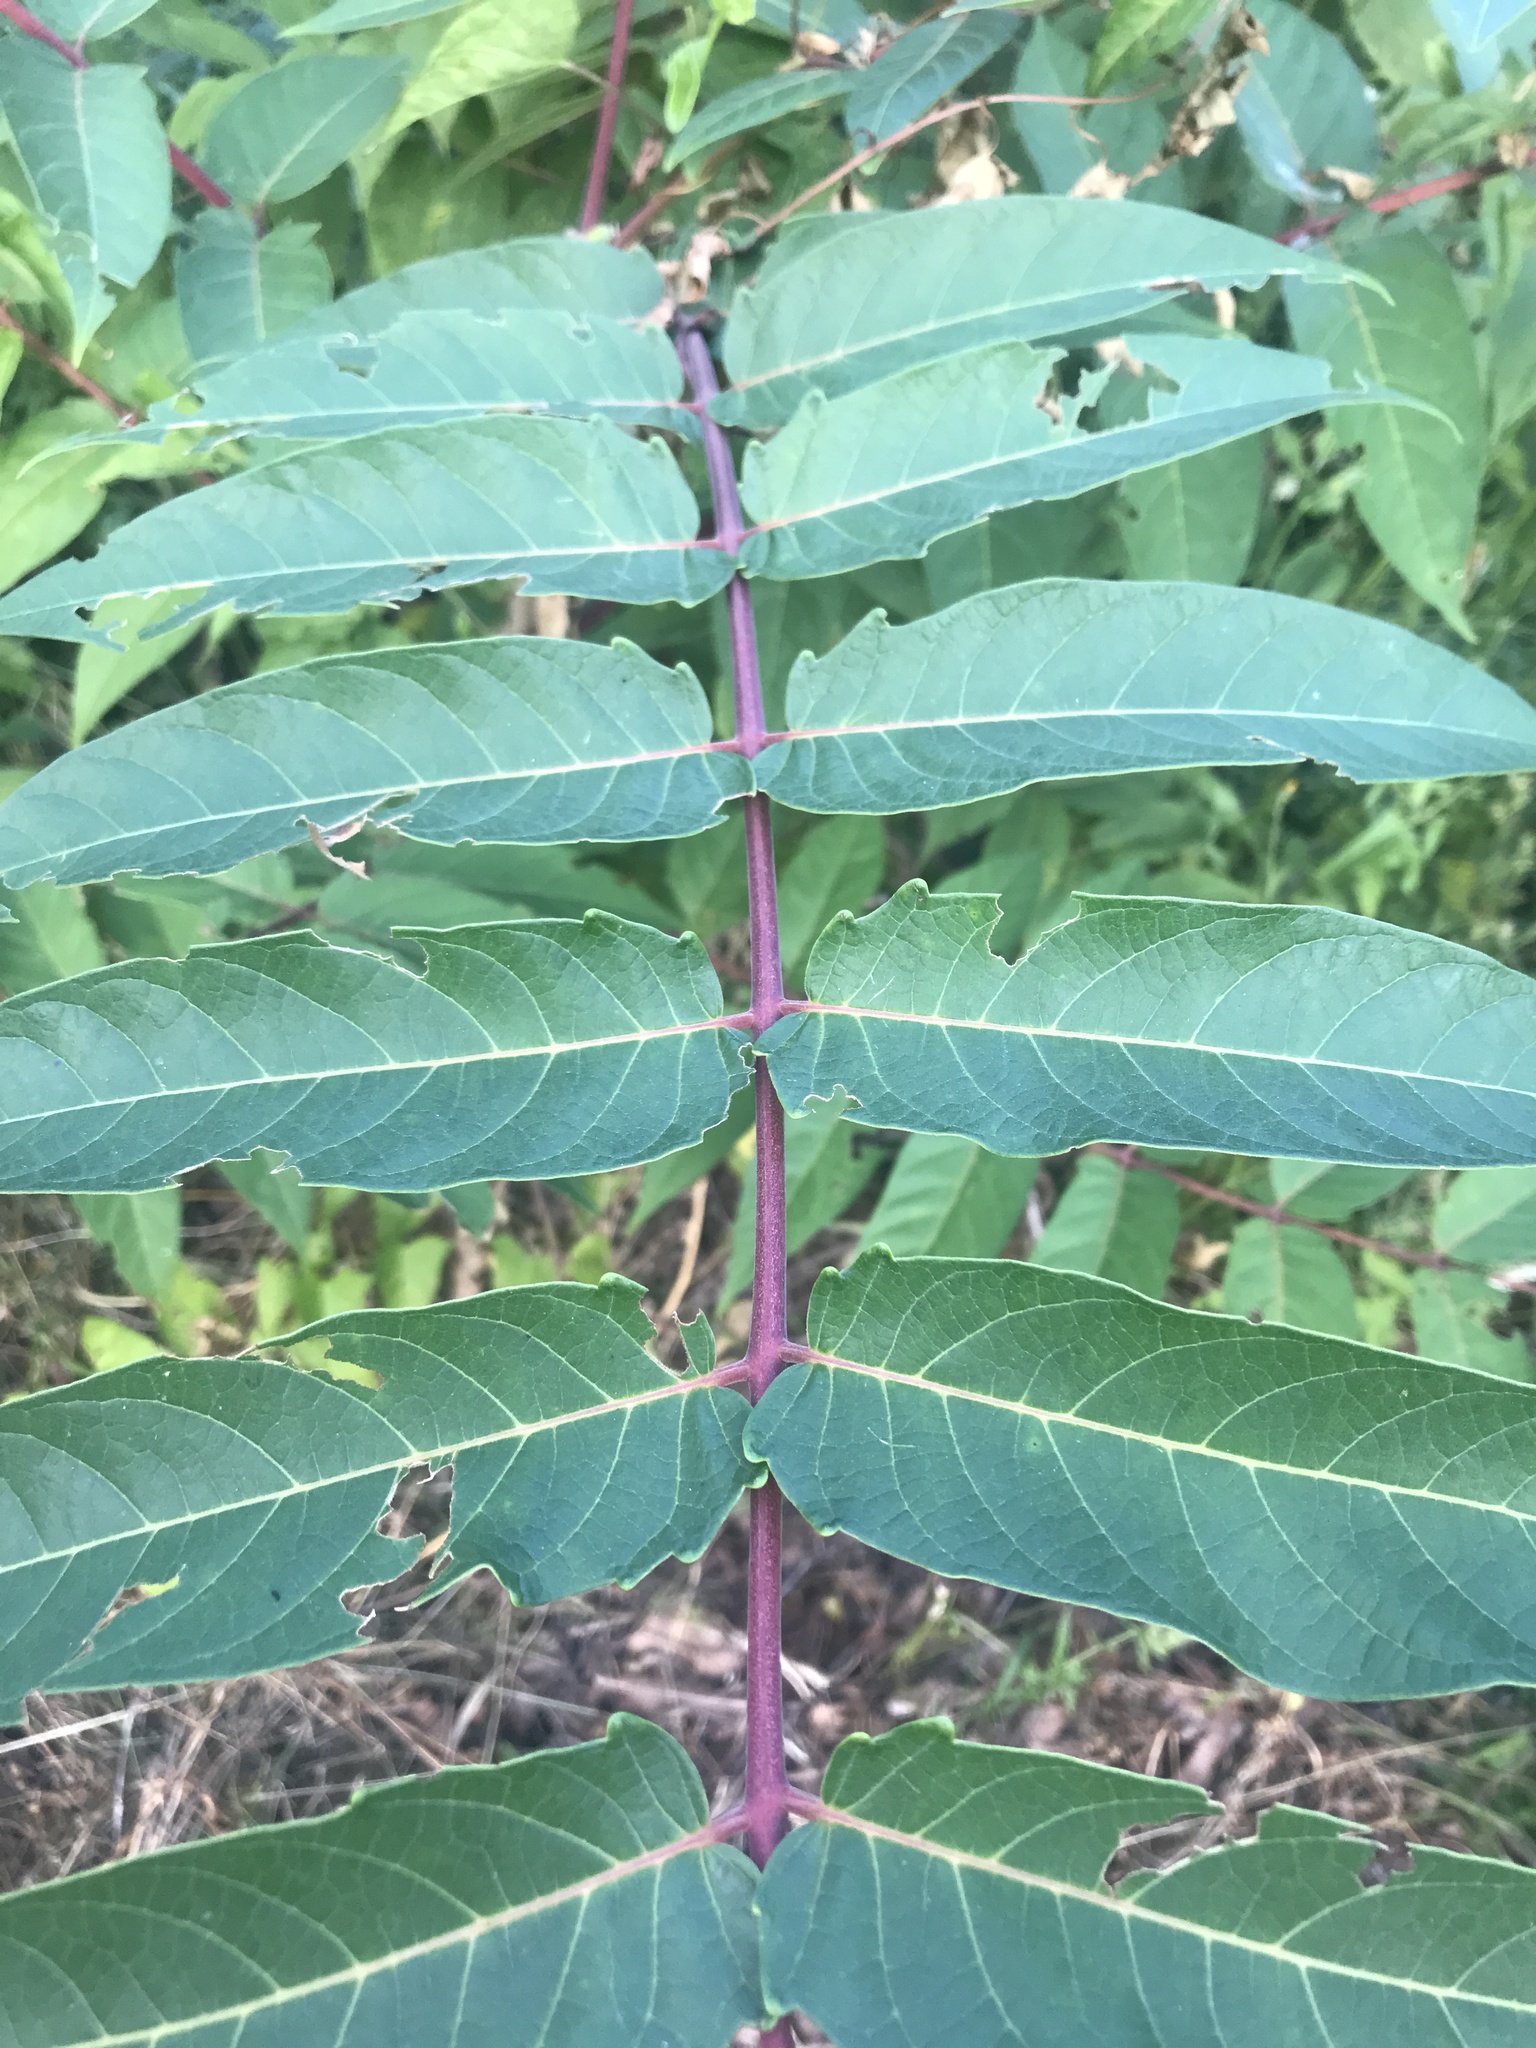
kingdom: Plantae
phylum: Tracheophyta
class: Magnoliopsida
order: Sapindales
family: Simaroubaceae
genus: Ailanthus
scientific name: Ailanthus altissima
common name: Tree-of-heaven
